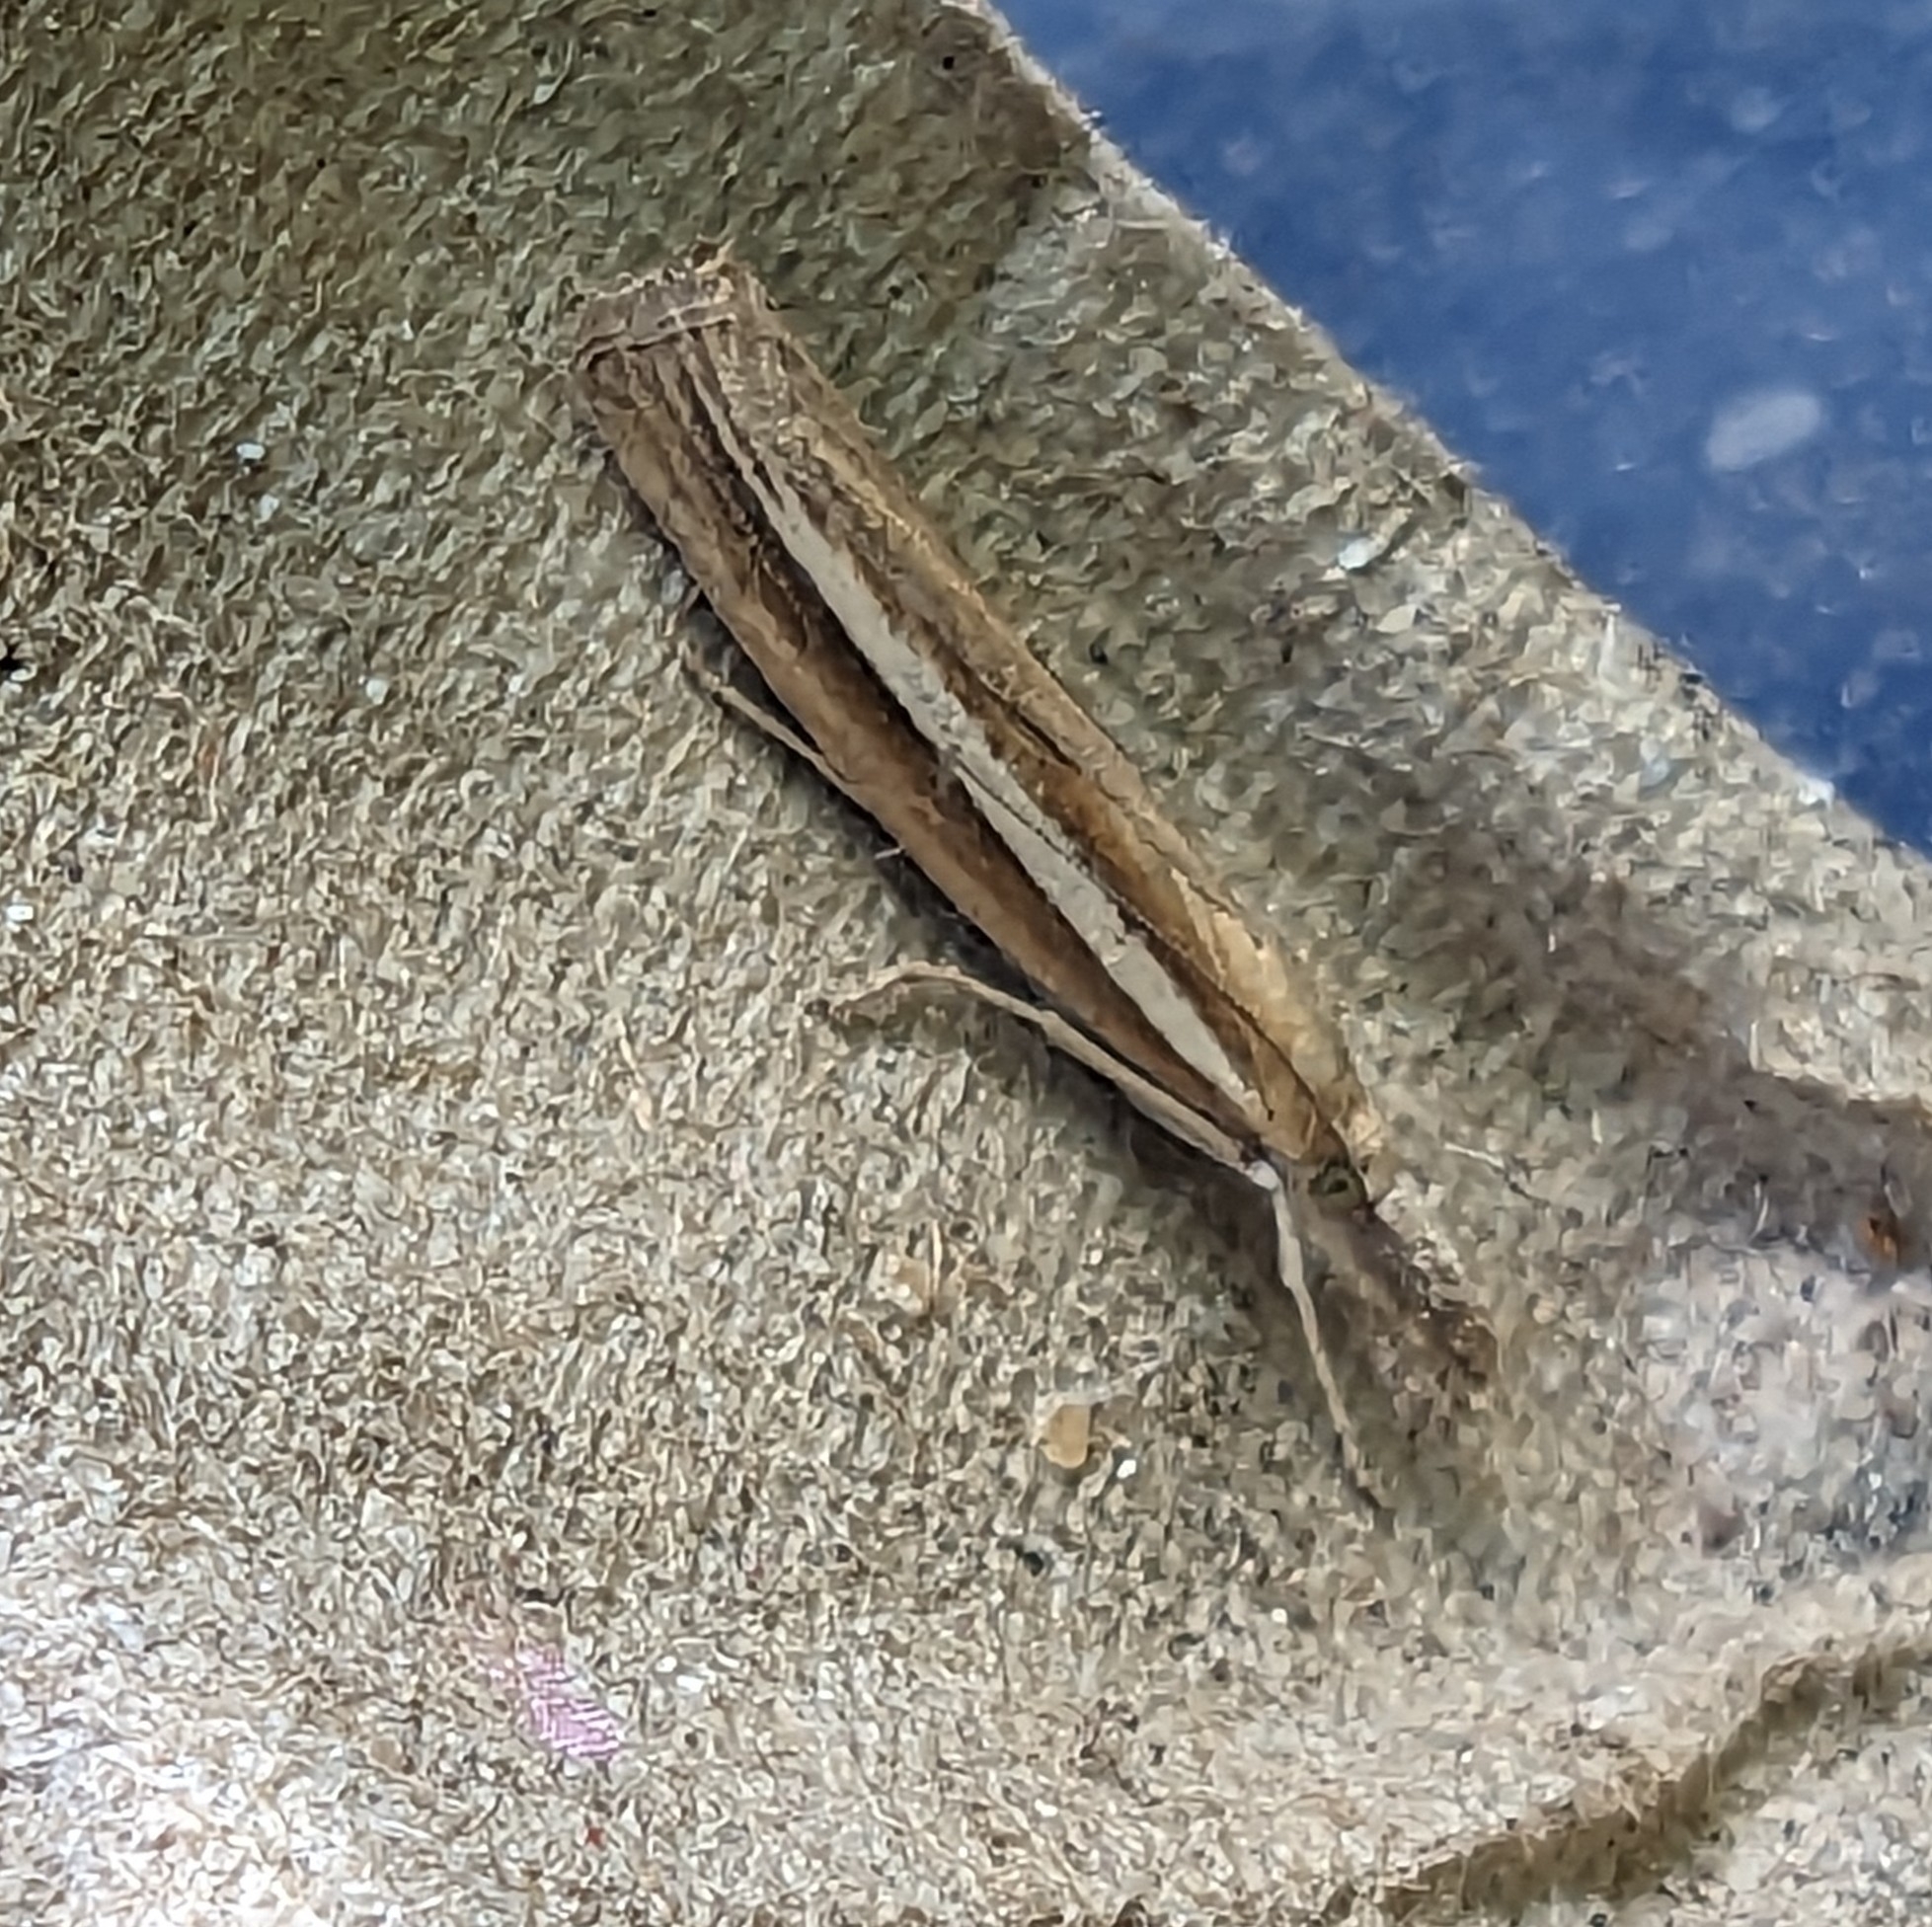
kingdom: Animalia
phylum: Arthropoda
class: Insecta
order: Lepidoptera
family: Crambidae
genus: Agriphila
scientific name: Agriphila selasella
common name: Pale-streak grass-veneer
